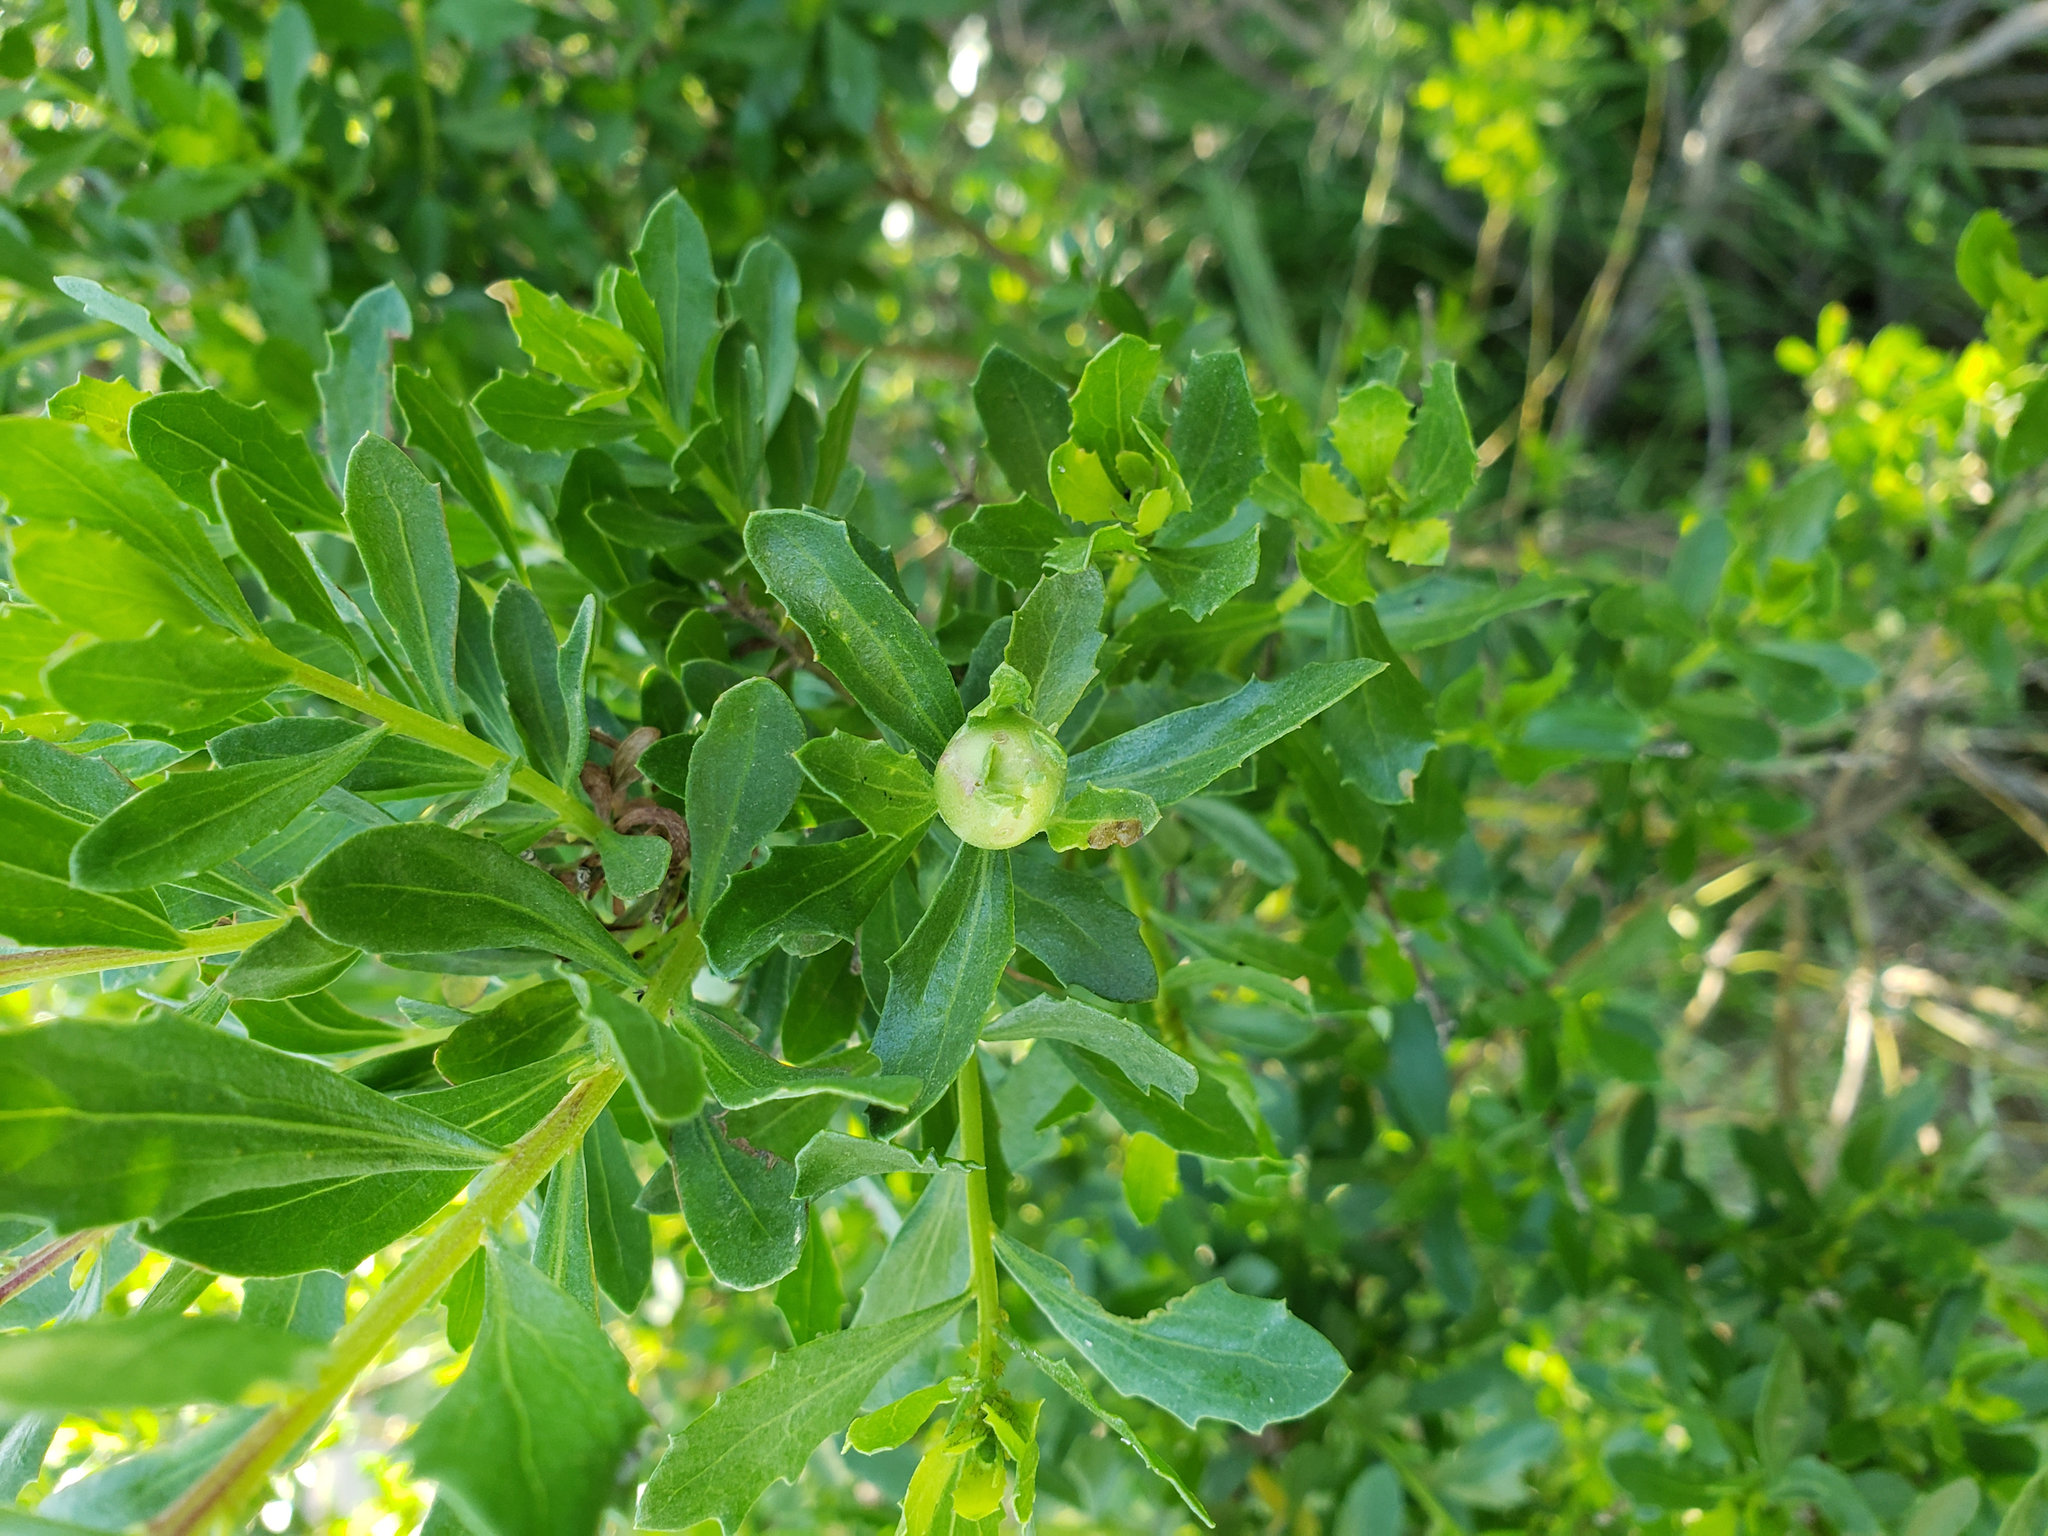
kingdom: Animalia
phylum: Arthropoda
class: Insecta
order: Diptera
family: Cecidomyiidae
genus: Rhopalomyia
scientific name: Rhopalomyia californica
